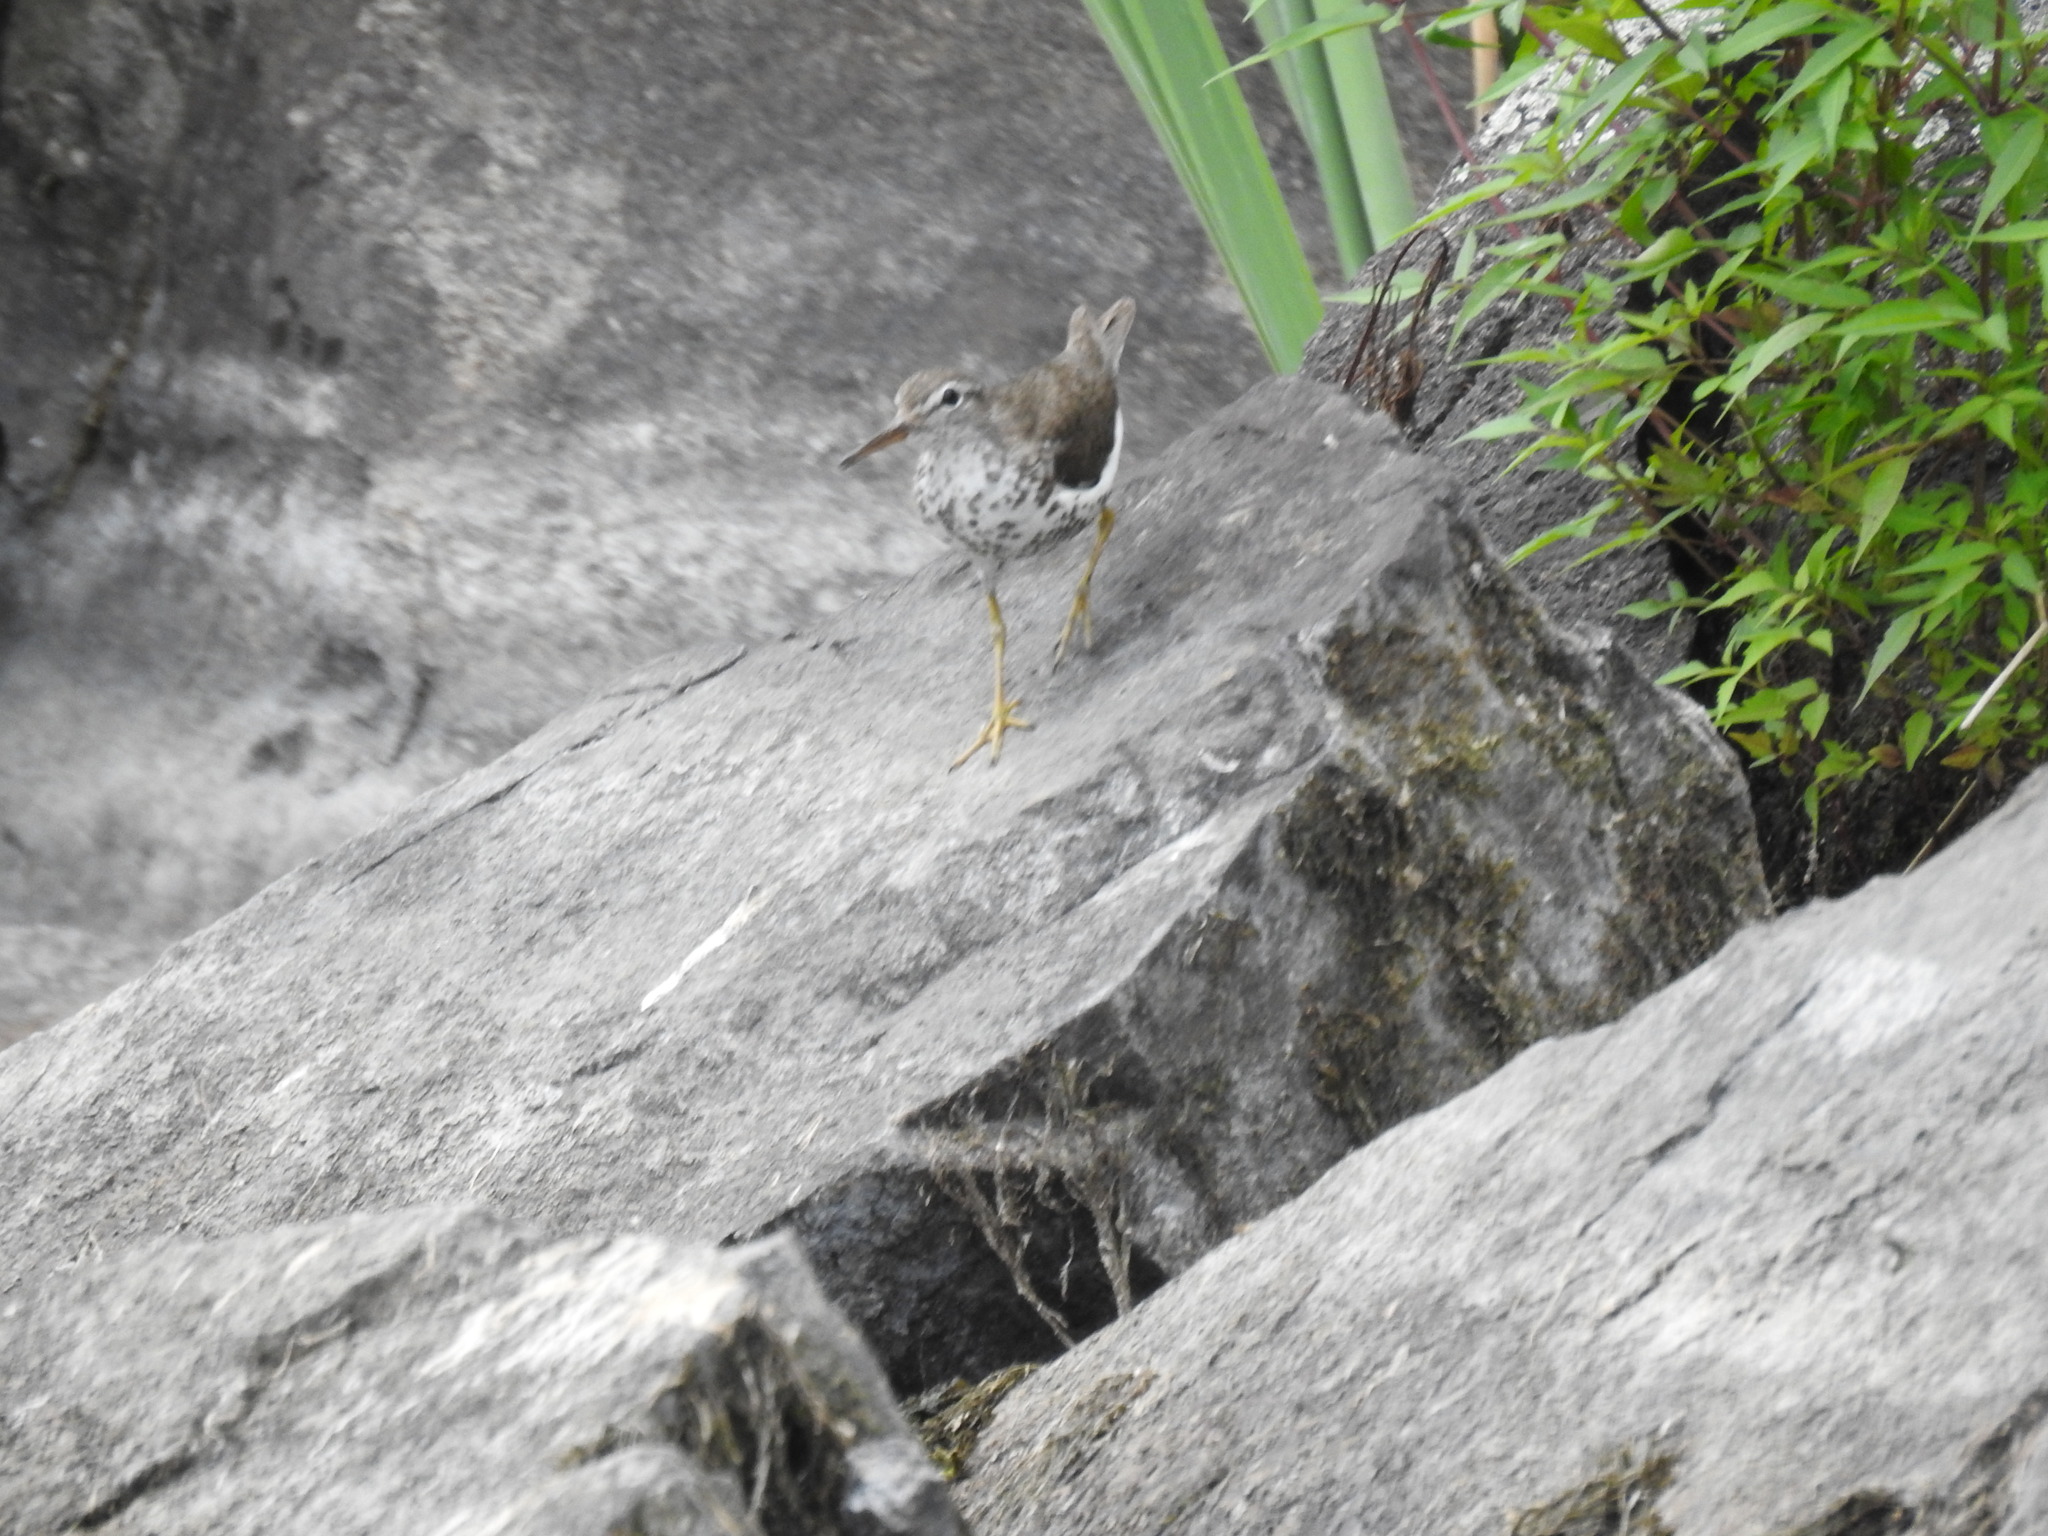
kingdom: Animalia
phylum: Chordata
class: Aves
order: Charadriiformes
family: Scolopacidae
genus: Actitis
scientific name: Actitis macularius
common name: Spotted sandpiper
